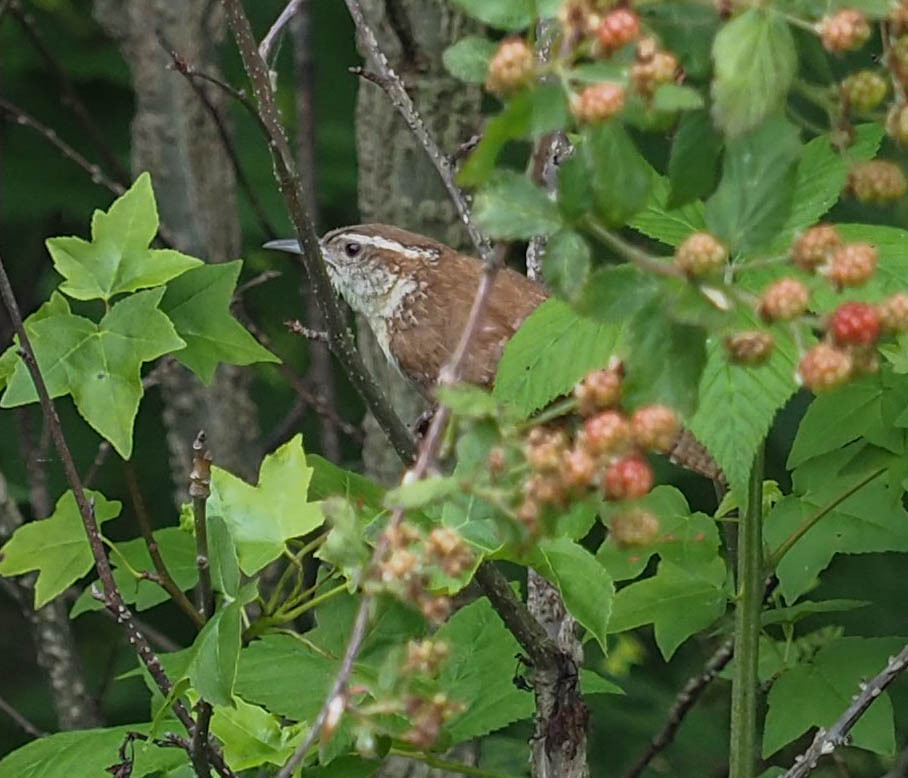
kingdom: Animalia
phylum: Chordata
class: Aves
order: Passeriformes
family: Troglodytidae
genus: Thryothorus
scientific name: Thryothorus ludovicianus
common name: Carolina wren
